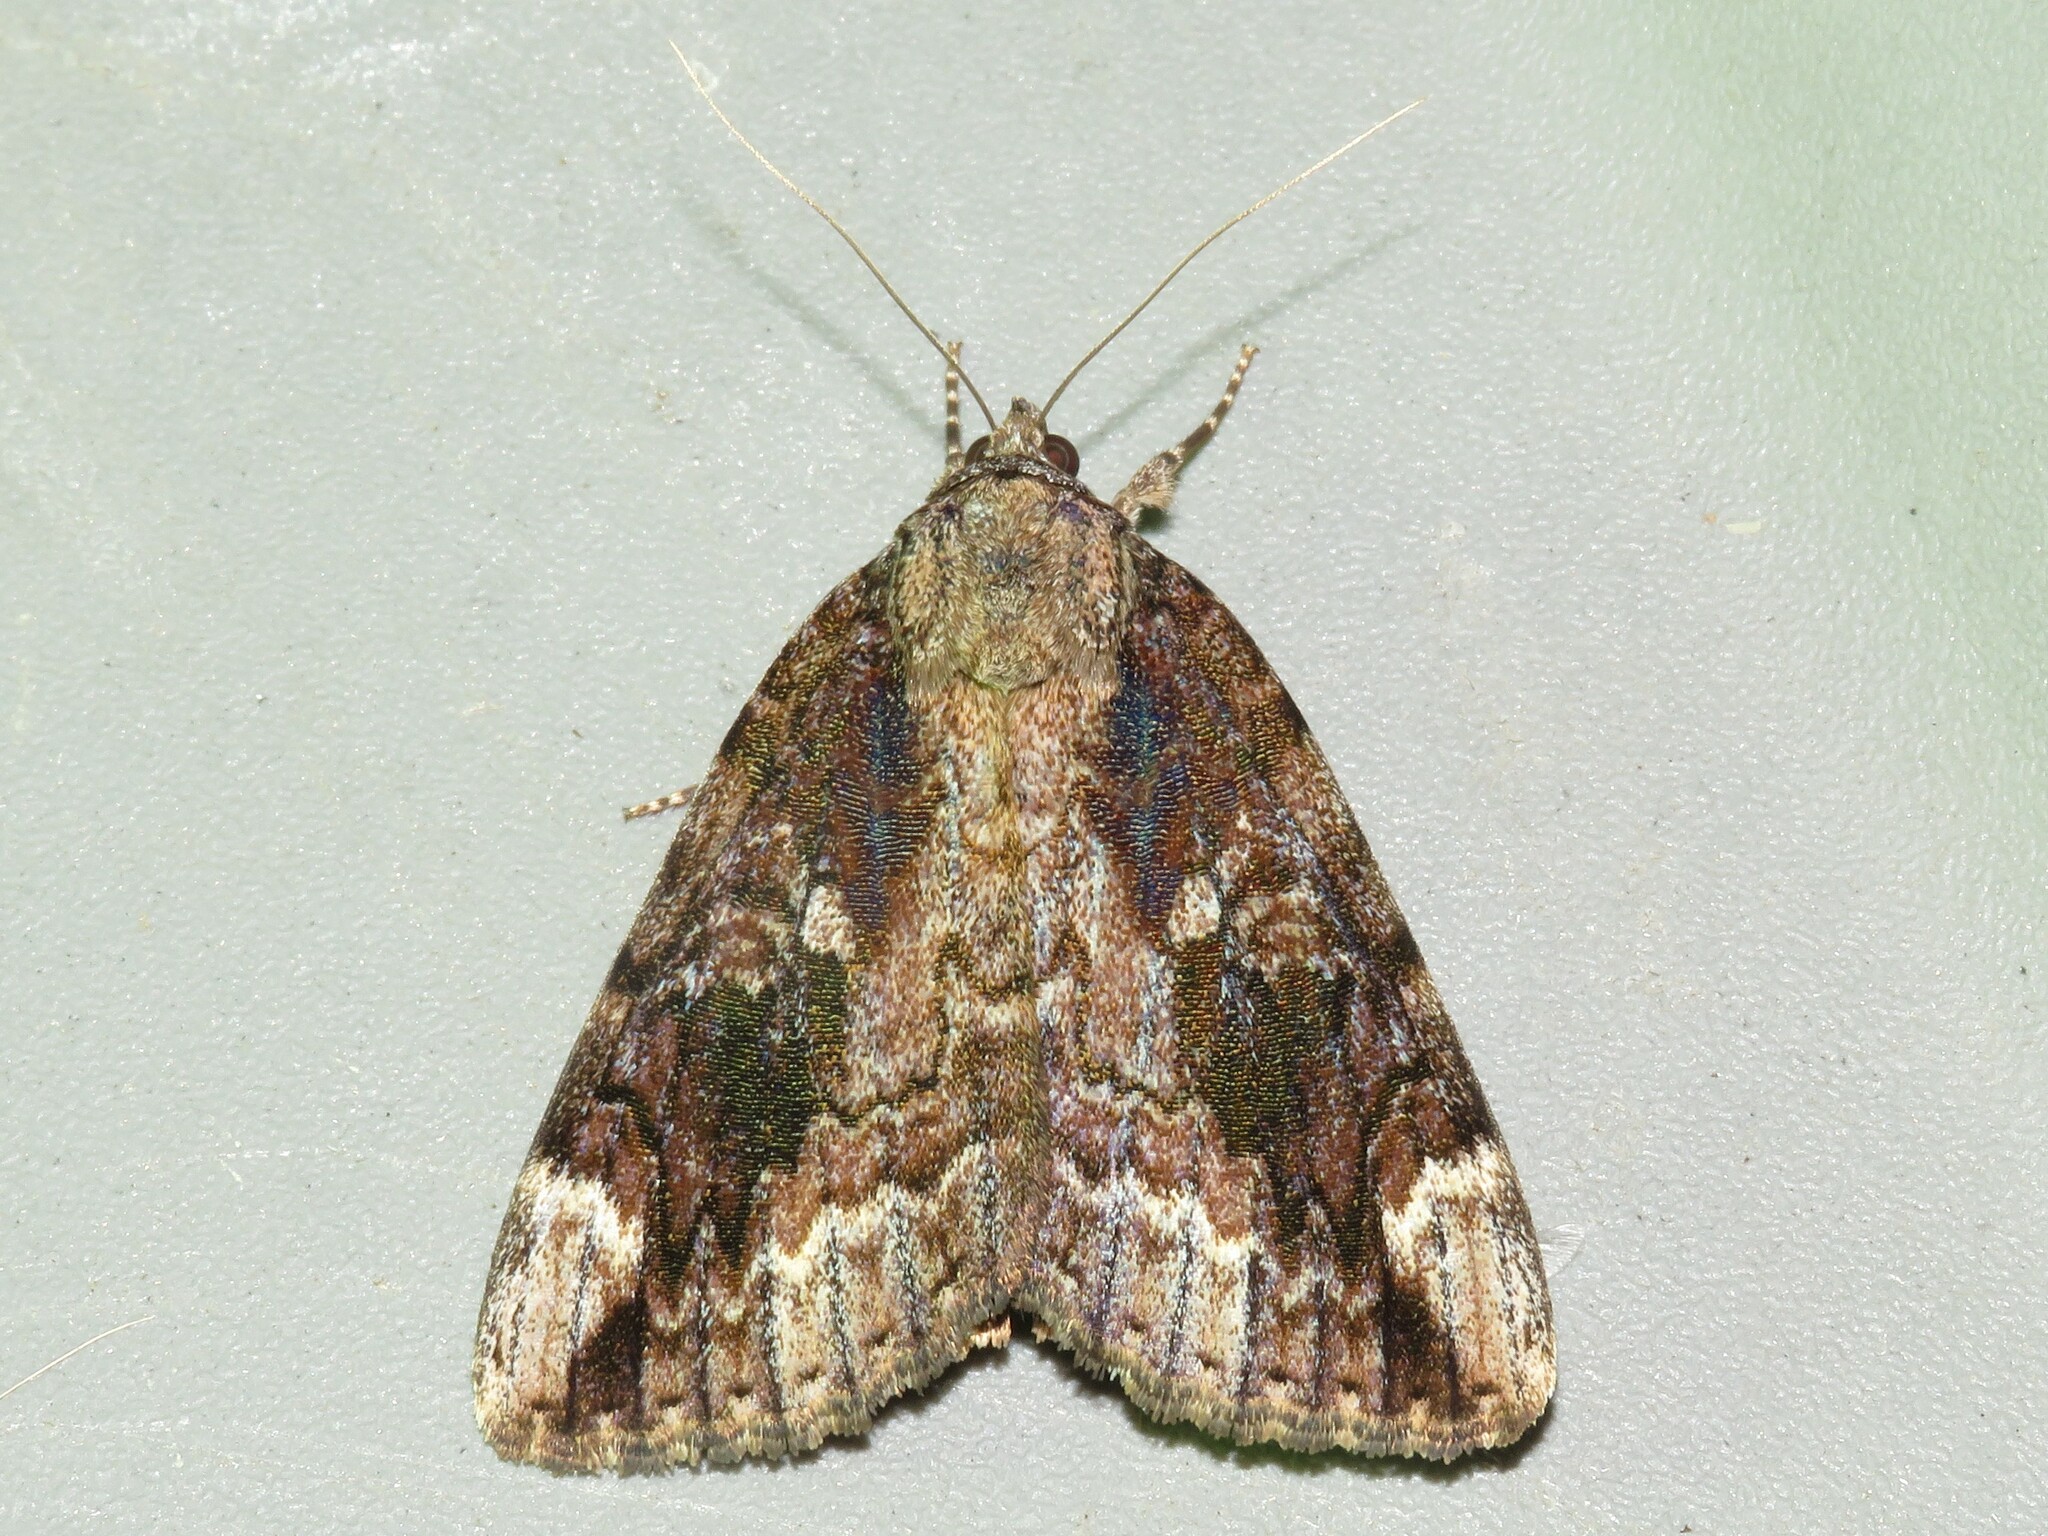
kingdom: Animalia
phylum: Arthropoda
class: Insecta
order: Lepidoptera
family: Erebidae
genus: Catocala
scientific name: Catocala innubens
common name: Betrothed underwing
